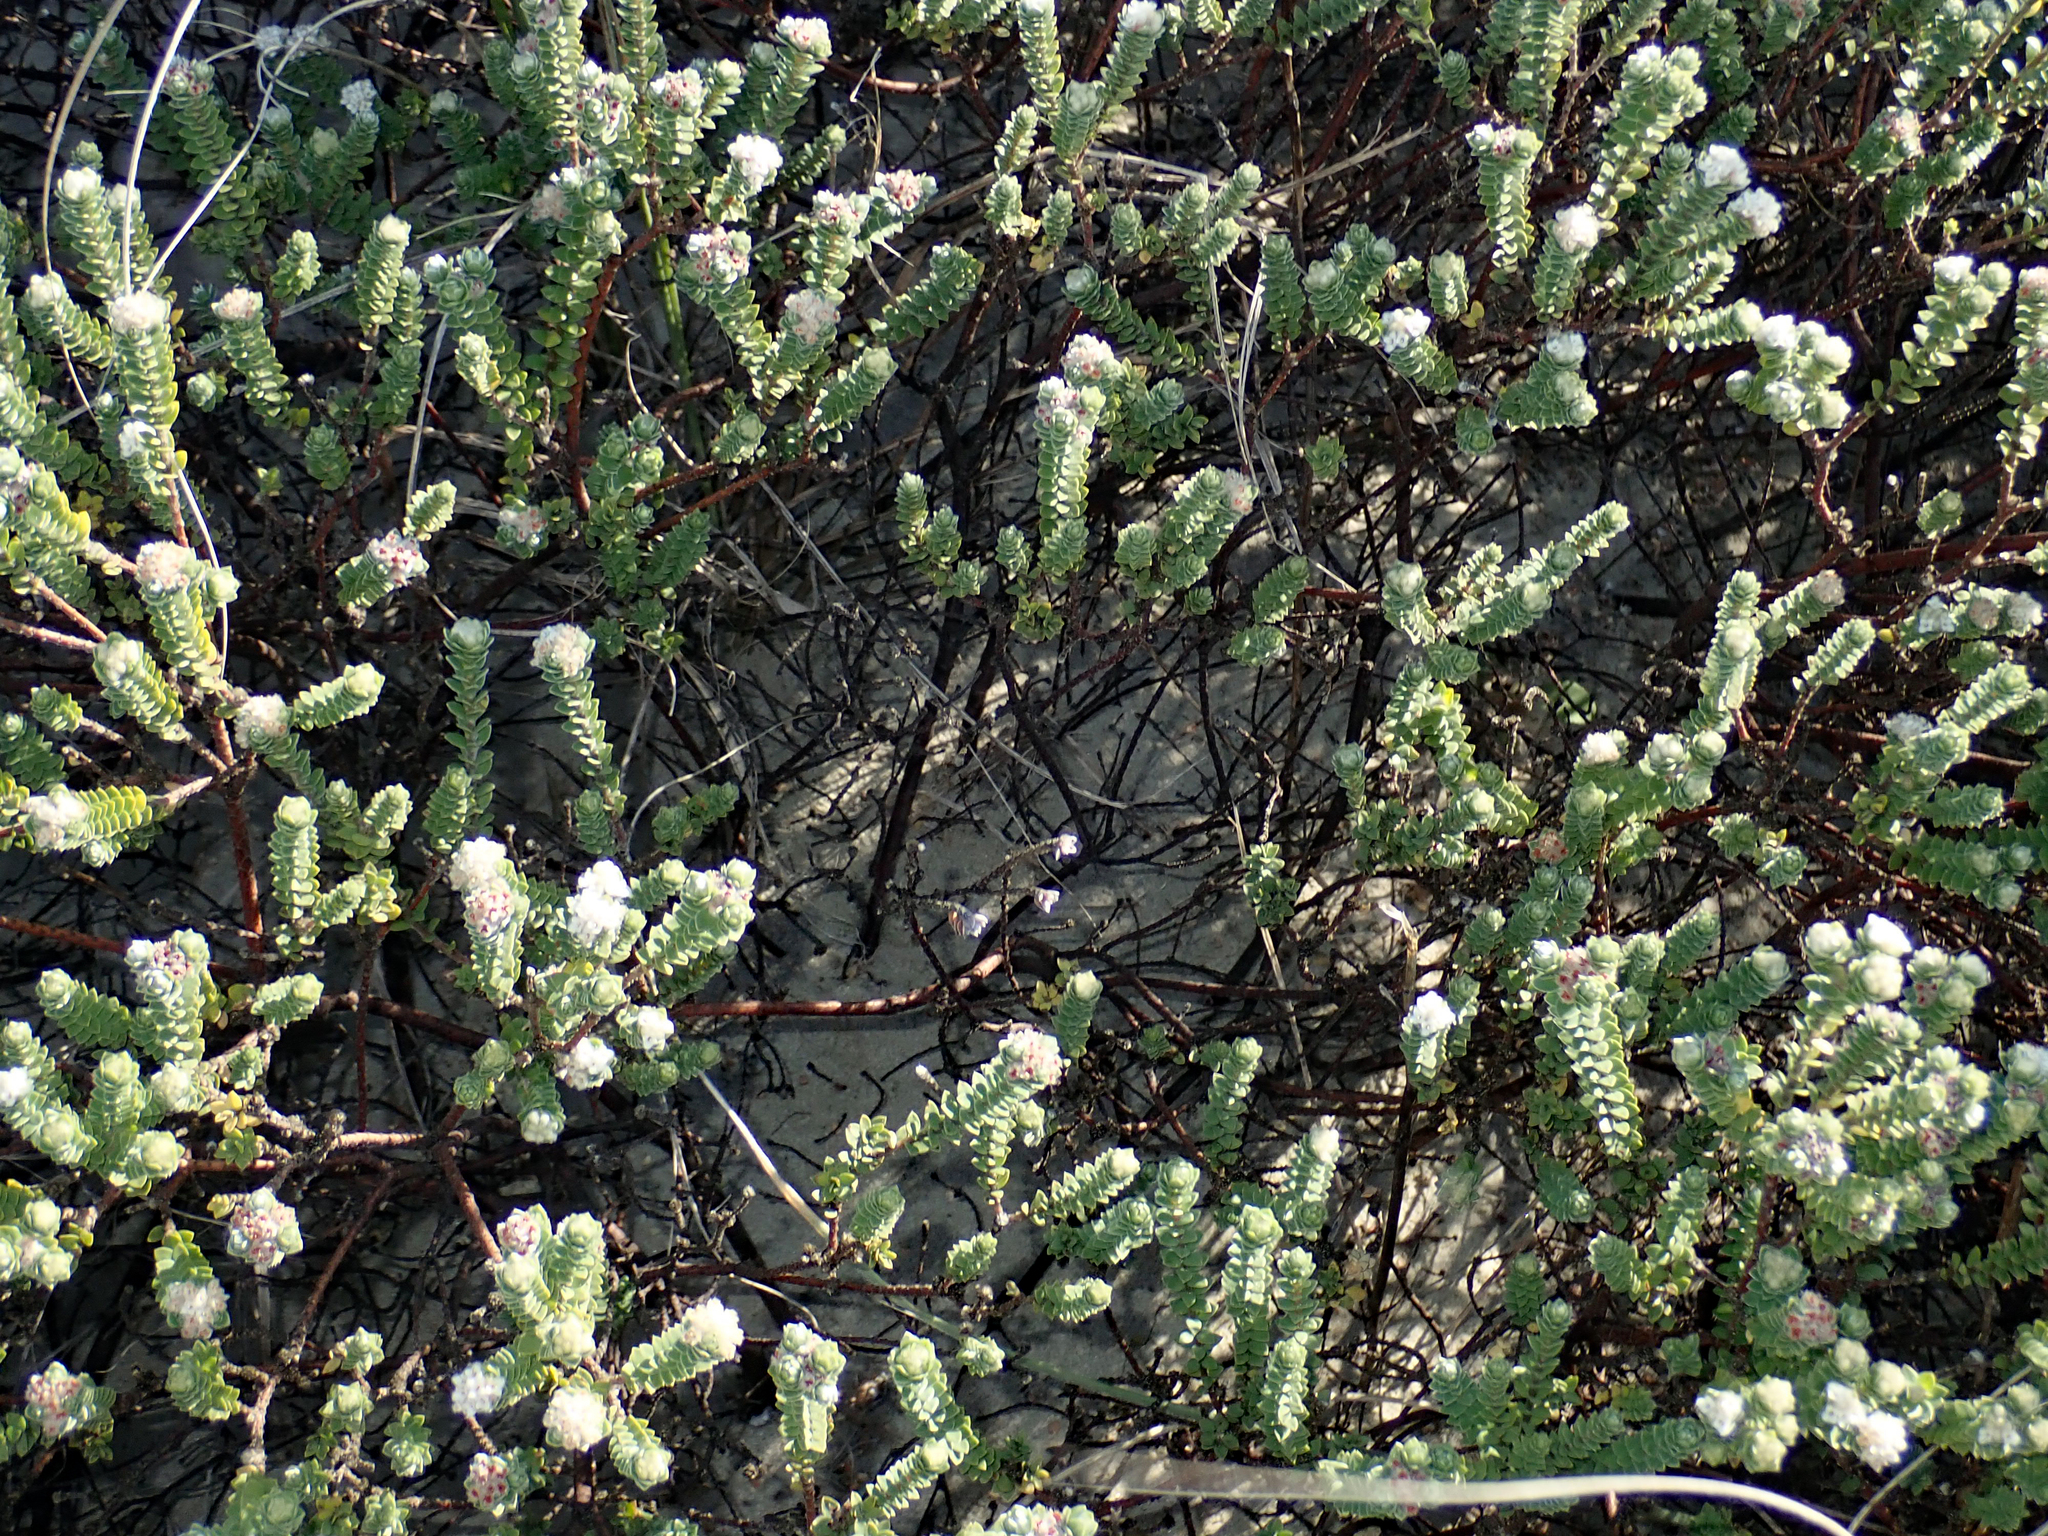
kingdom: Plantae
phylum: Tracheophyta
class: Magnoliopsida
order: Malvales
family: Thymelaeaceae
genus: Pimelea
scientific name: Pimelea villosa
